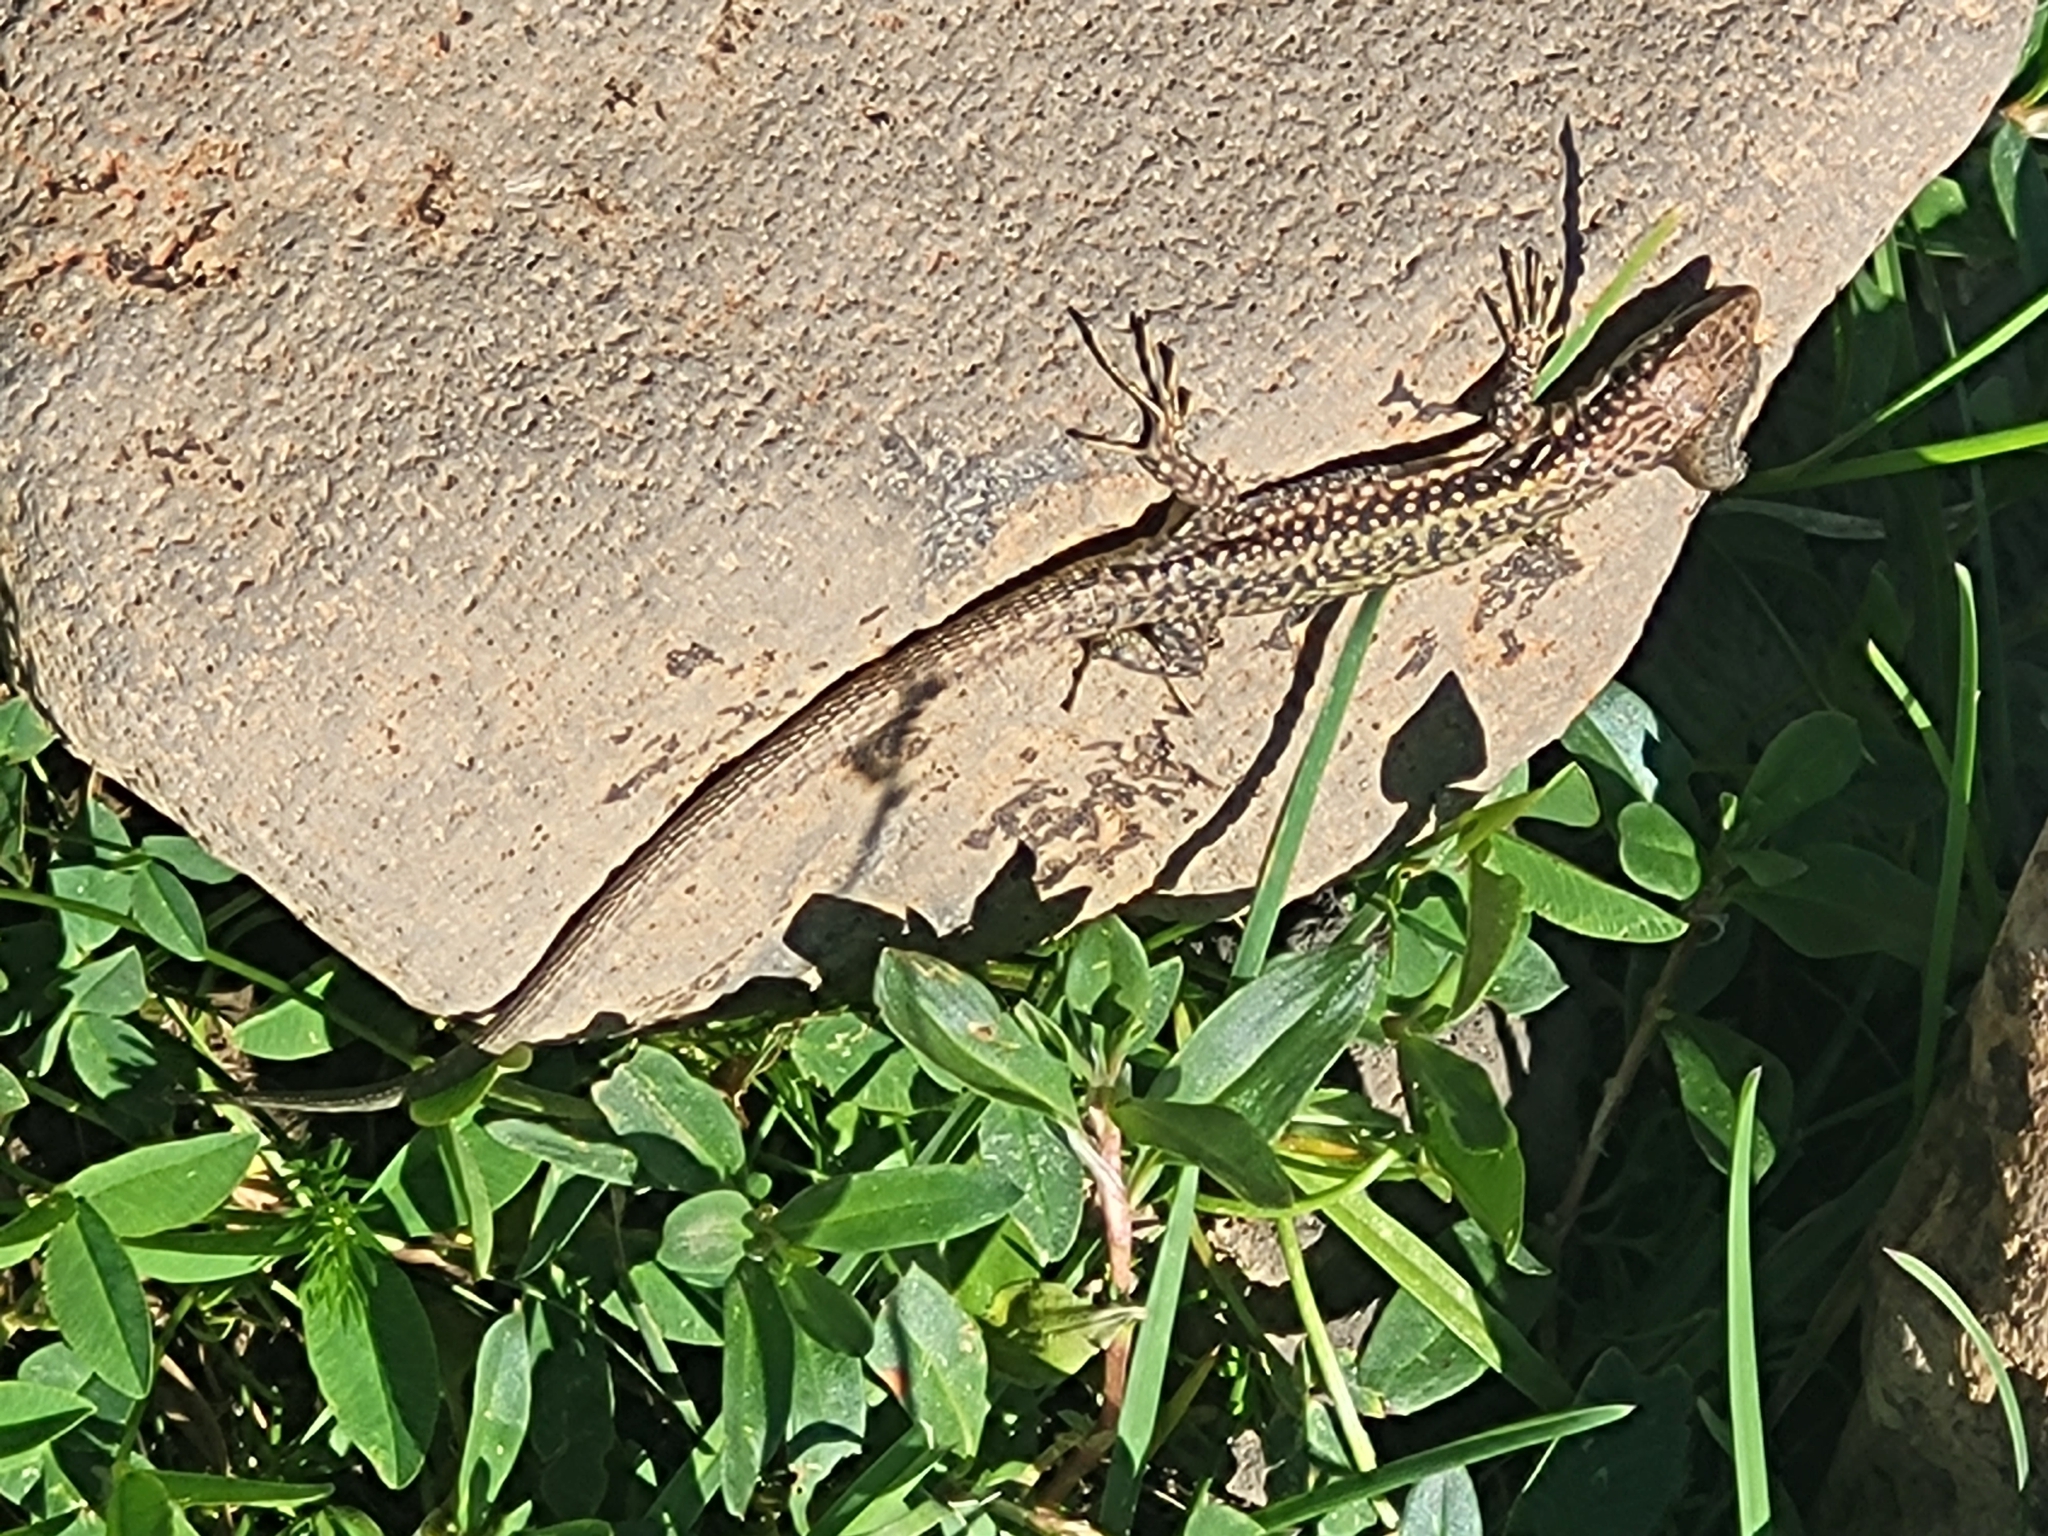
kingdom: Animalia
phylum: Chordata
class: Squamata
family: Lacertidae
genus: Darevskia
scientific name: Darevskia valentini
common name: Valentin's lizard
